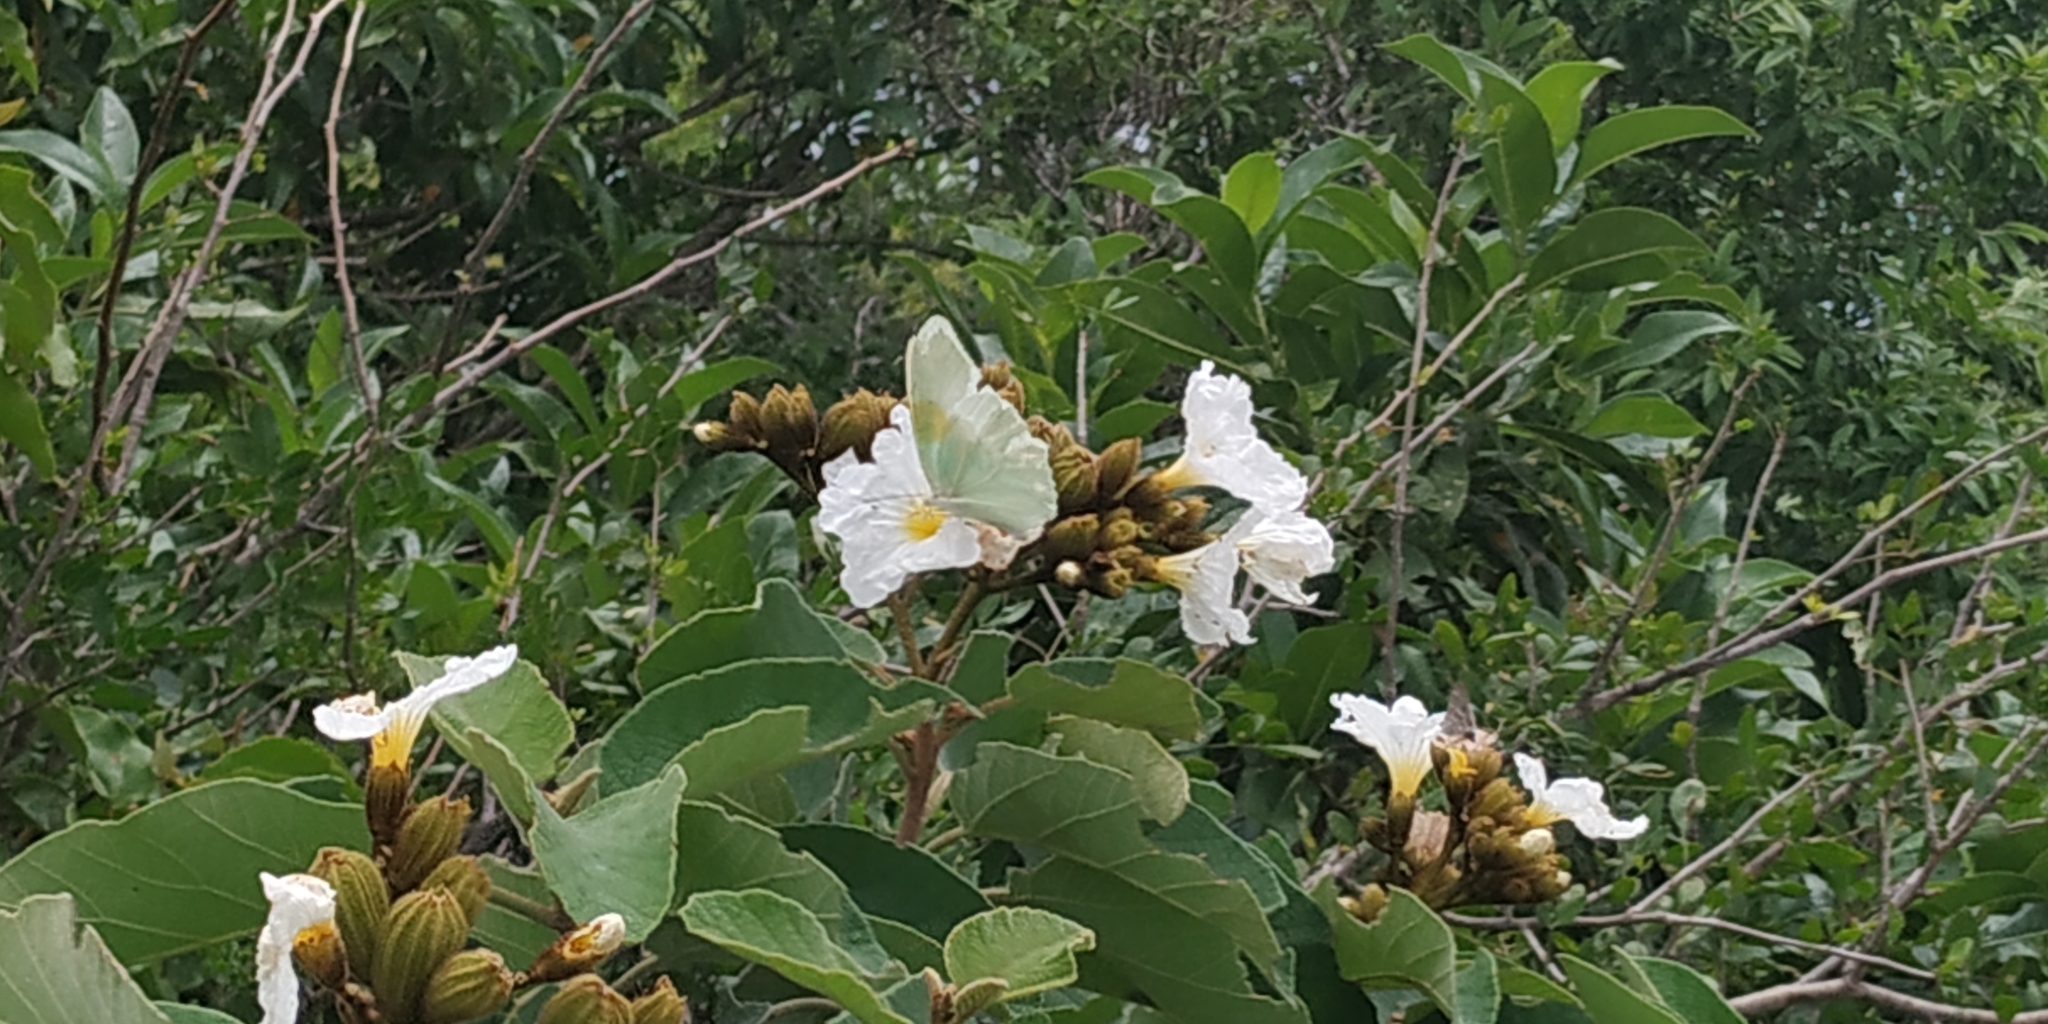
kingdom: Animalia
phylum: Arthropoda
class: Insecta
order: Lepidoptera
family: Pieridae
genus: Anteos
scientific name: Anteos clorinde
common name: White angled sulphur
